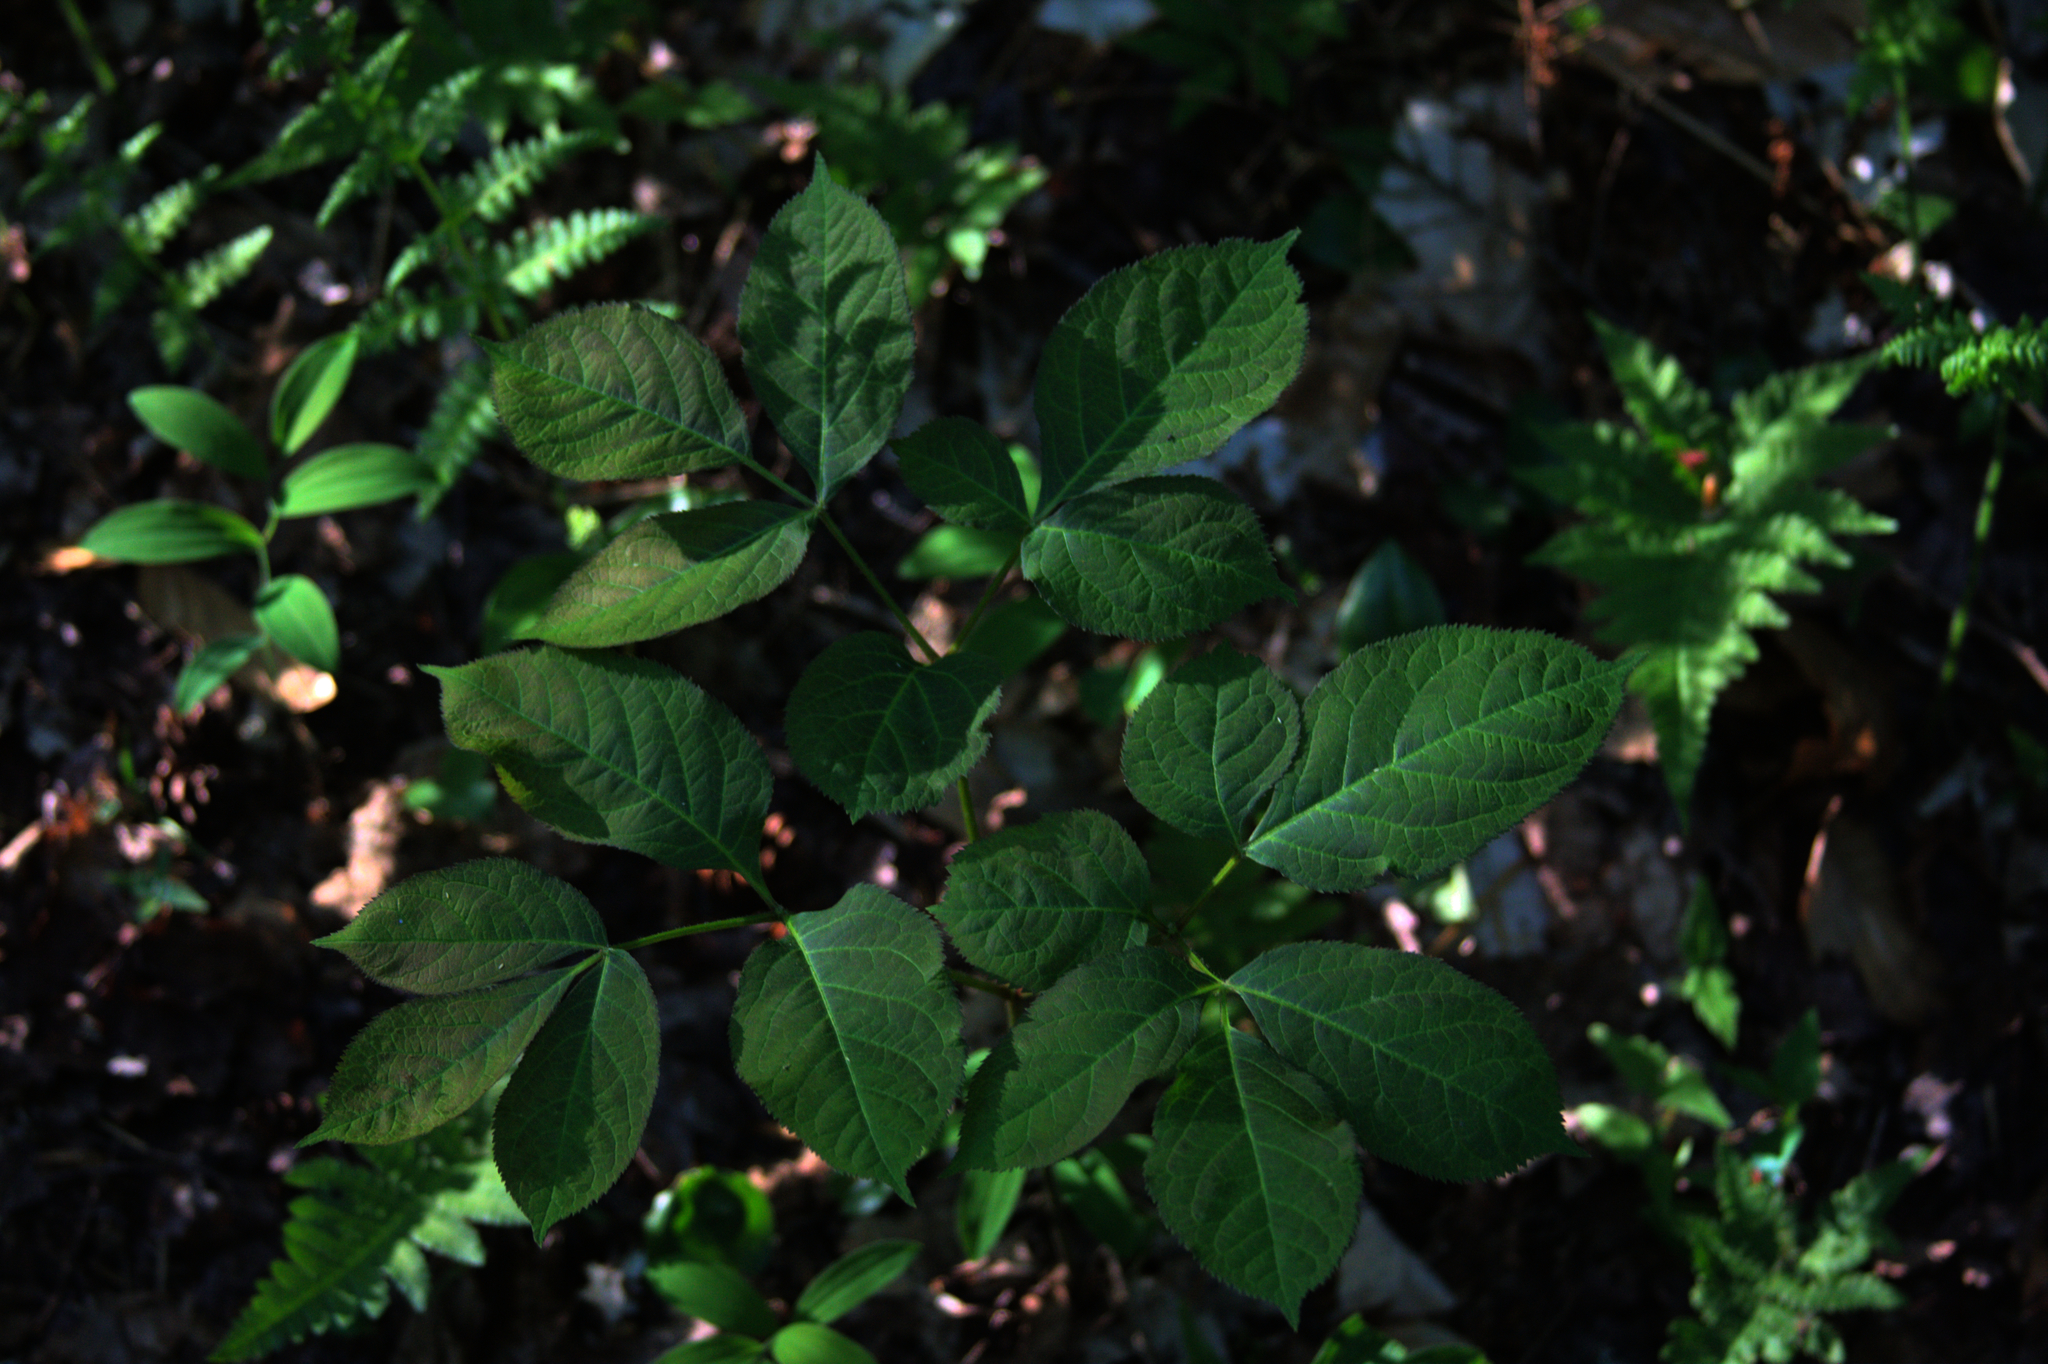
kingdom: Plantae
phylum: Tracheophyta
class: Magnoliopsida
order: Apiales
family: Araliaceae
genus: Aralia
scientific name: Aralia nudicaulis
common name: Wild sarsaparilla
